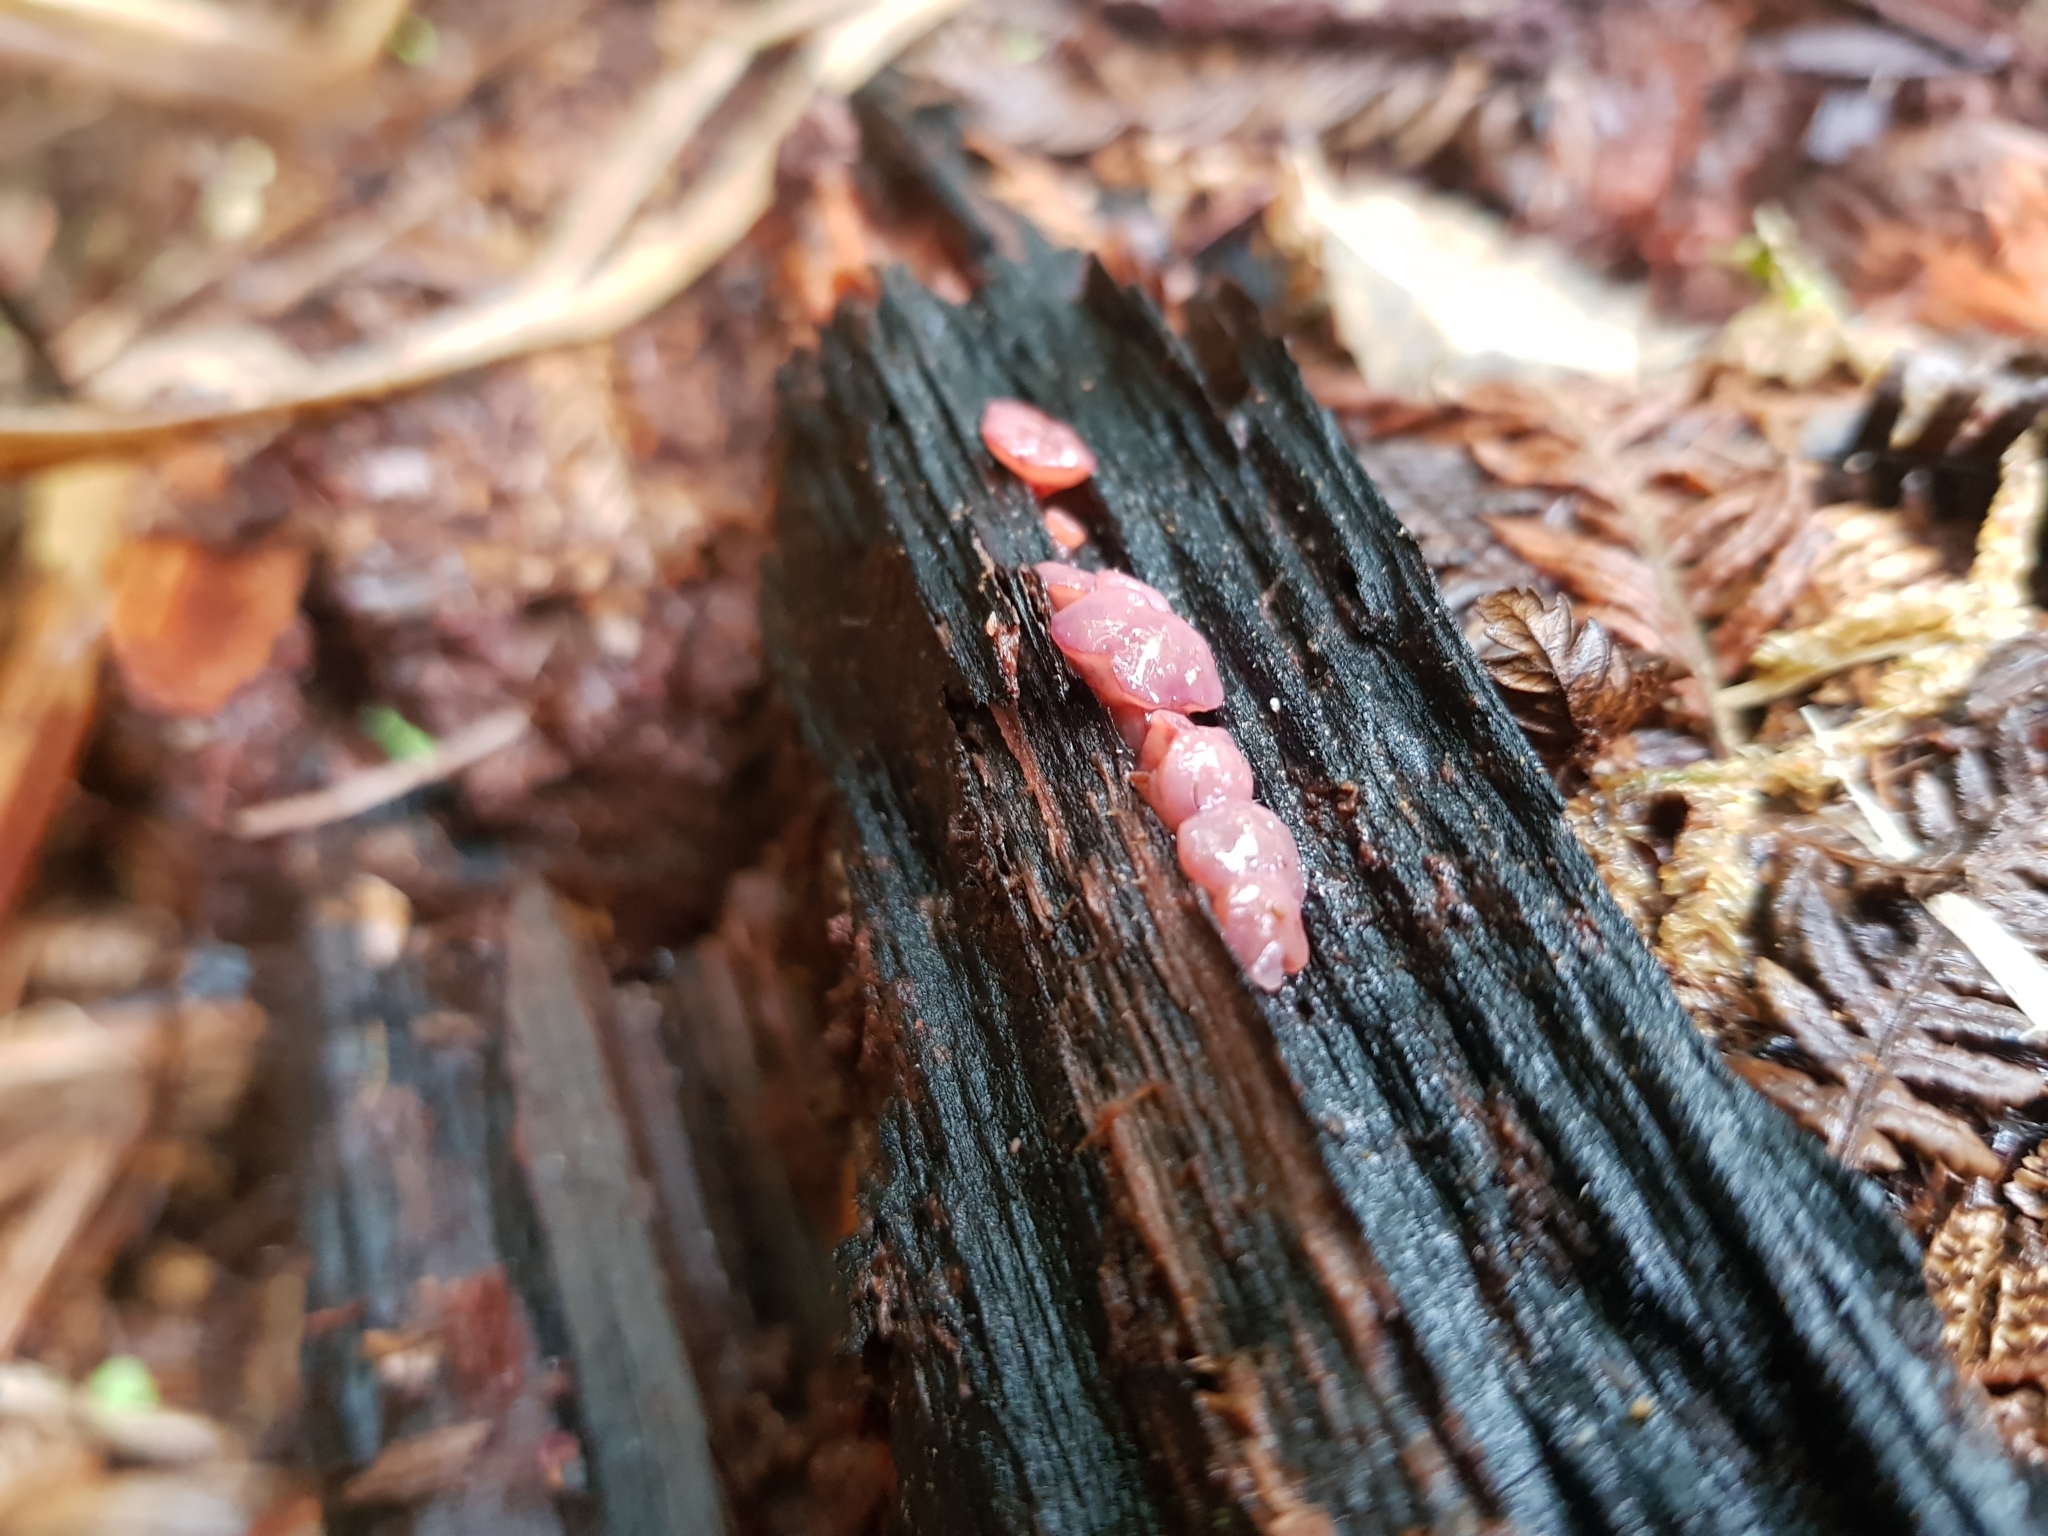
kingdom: Fungi
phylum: Ascomycota
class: Leotiomycetes
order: Helotiales
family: Gelatinodiscaceae
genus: Ascocoryne
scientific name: Ascocoryne sarcoides
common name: Purple jellydisc
